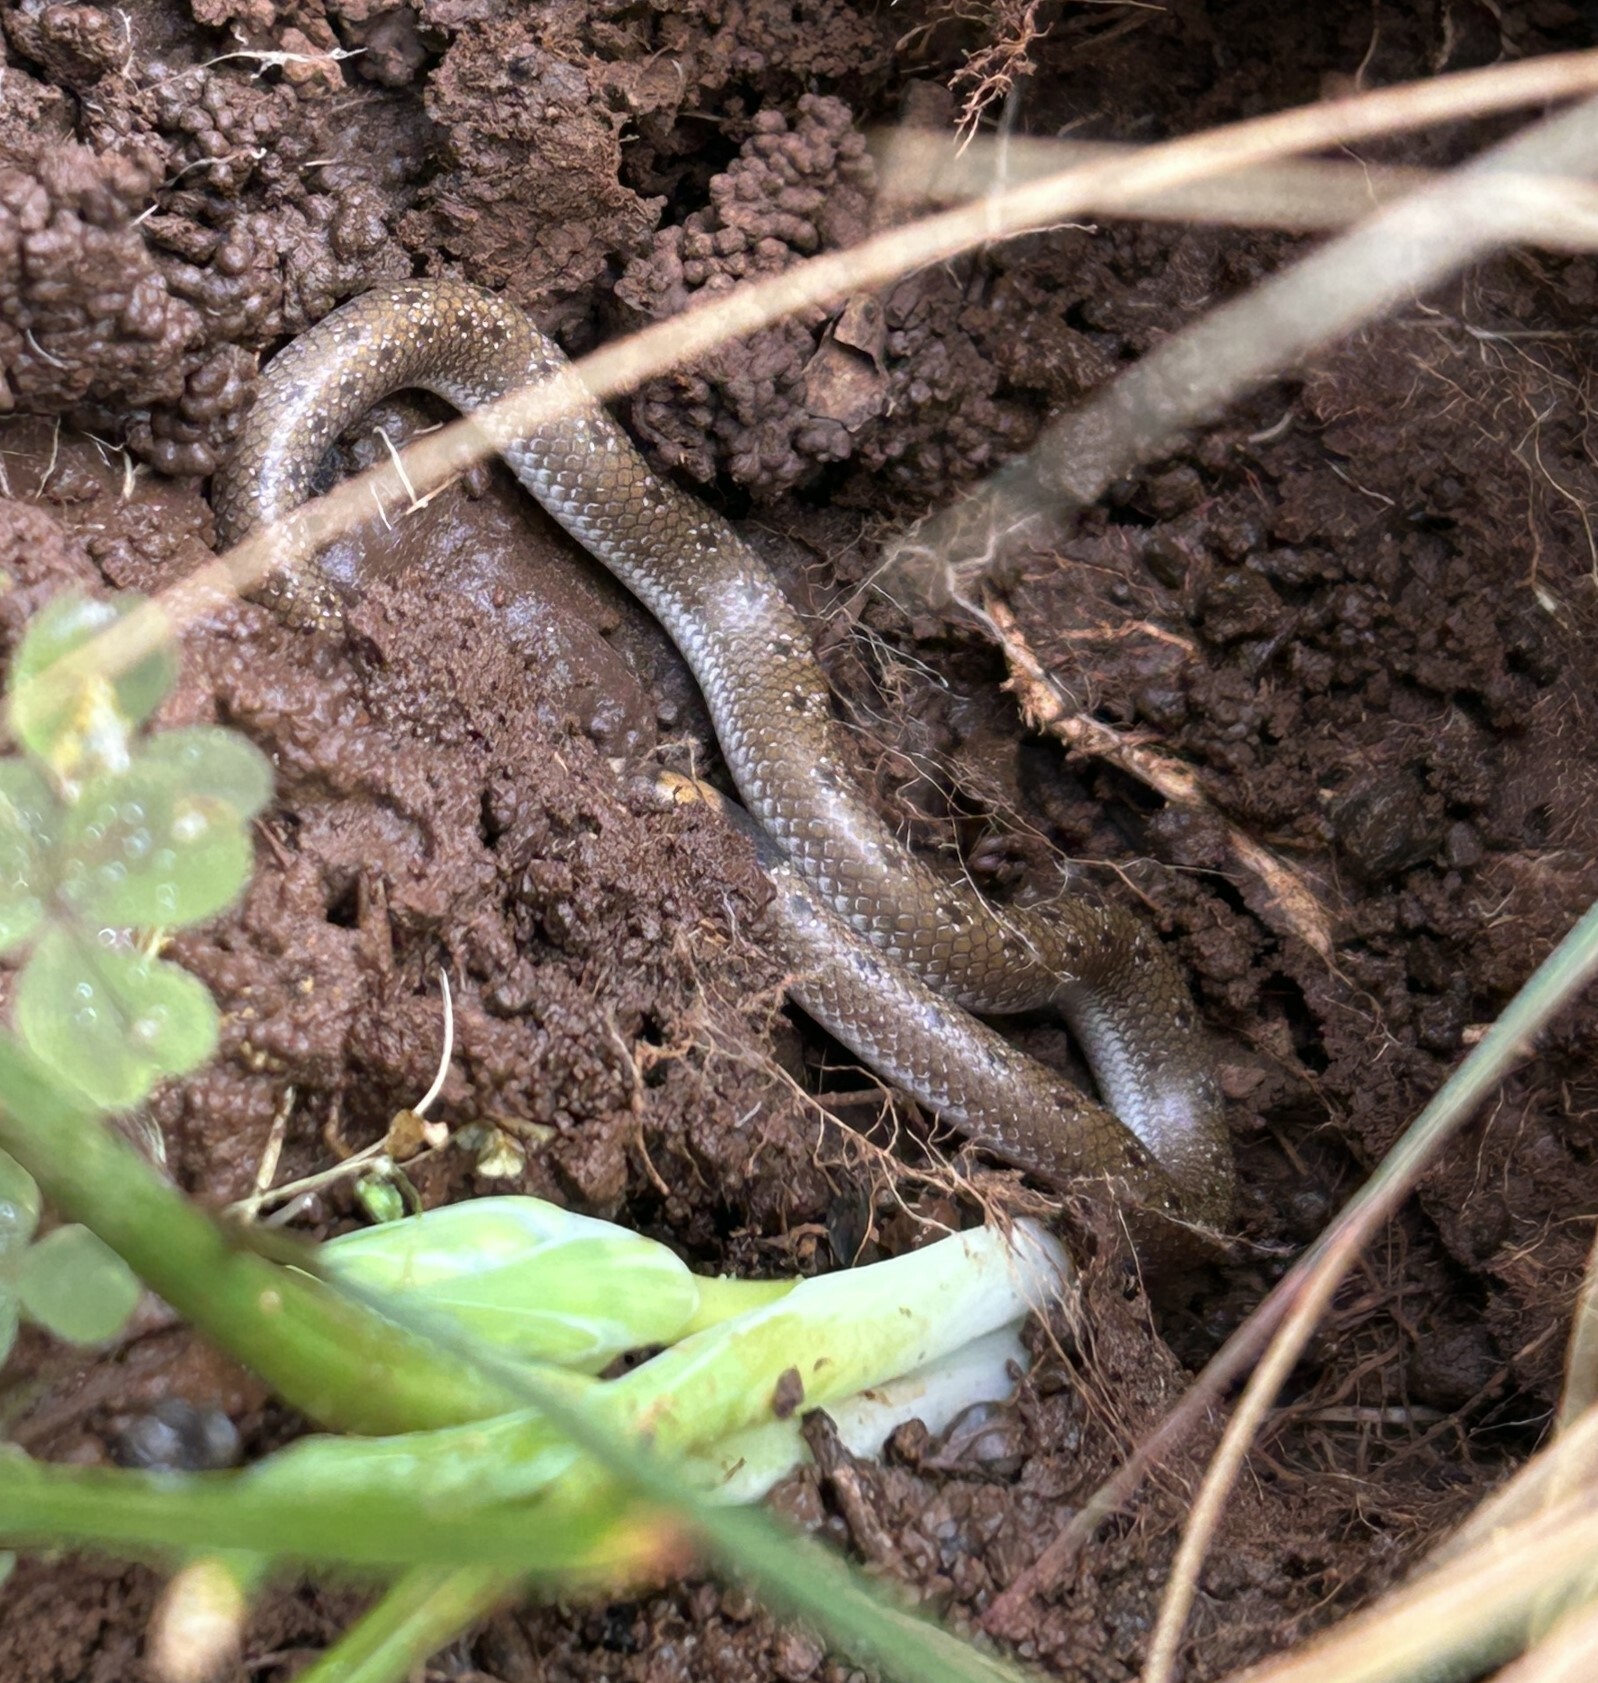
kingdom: Animalia
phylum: Chordata
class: Squamata
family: Prosymnidae
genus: Prosymna
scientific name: Prosymna sundevalli
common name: Sundevall's shovel-snout
